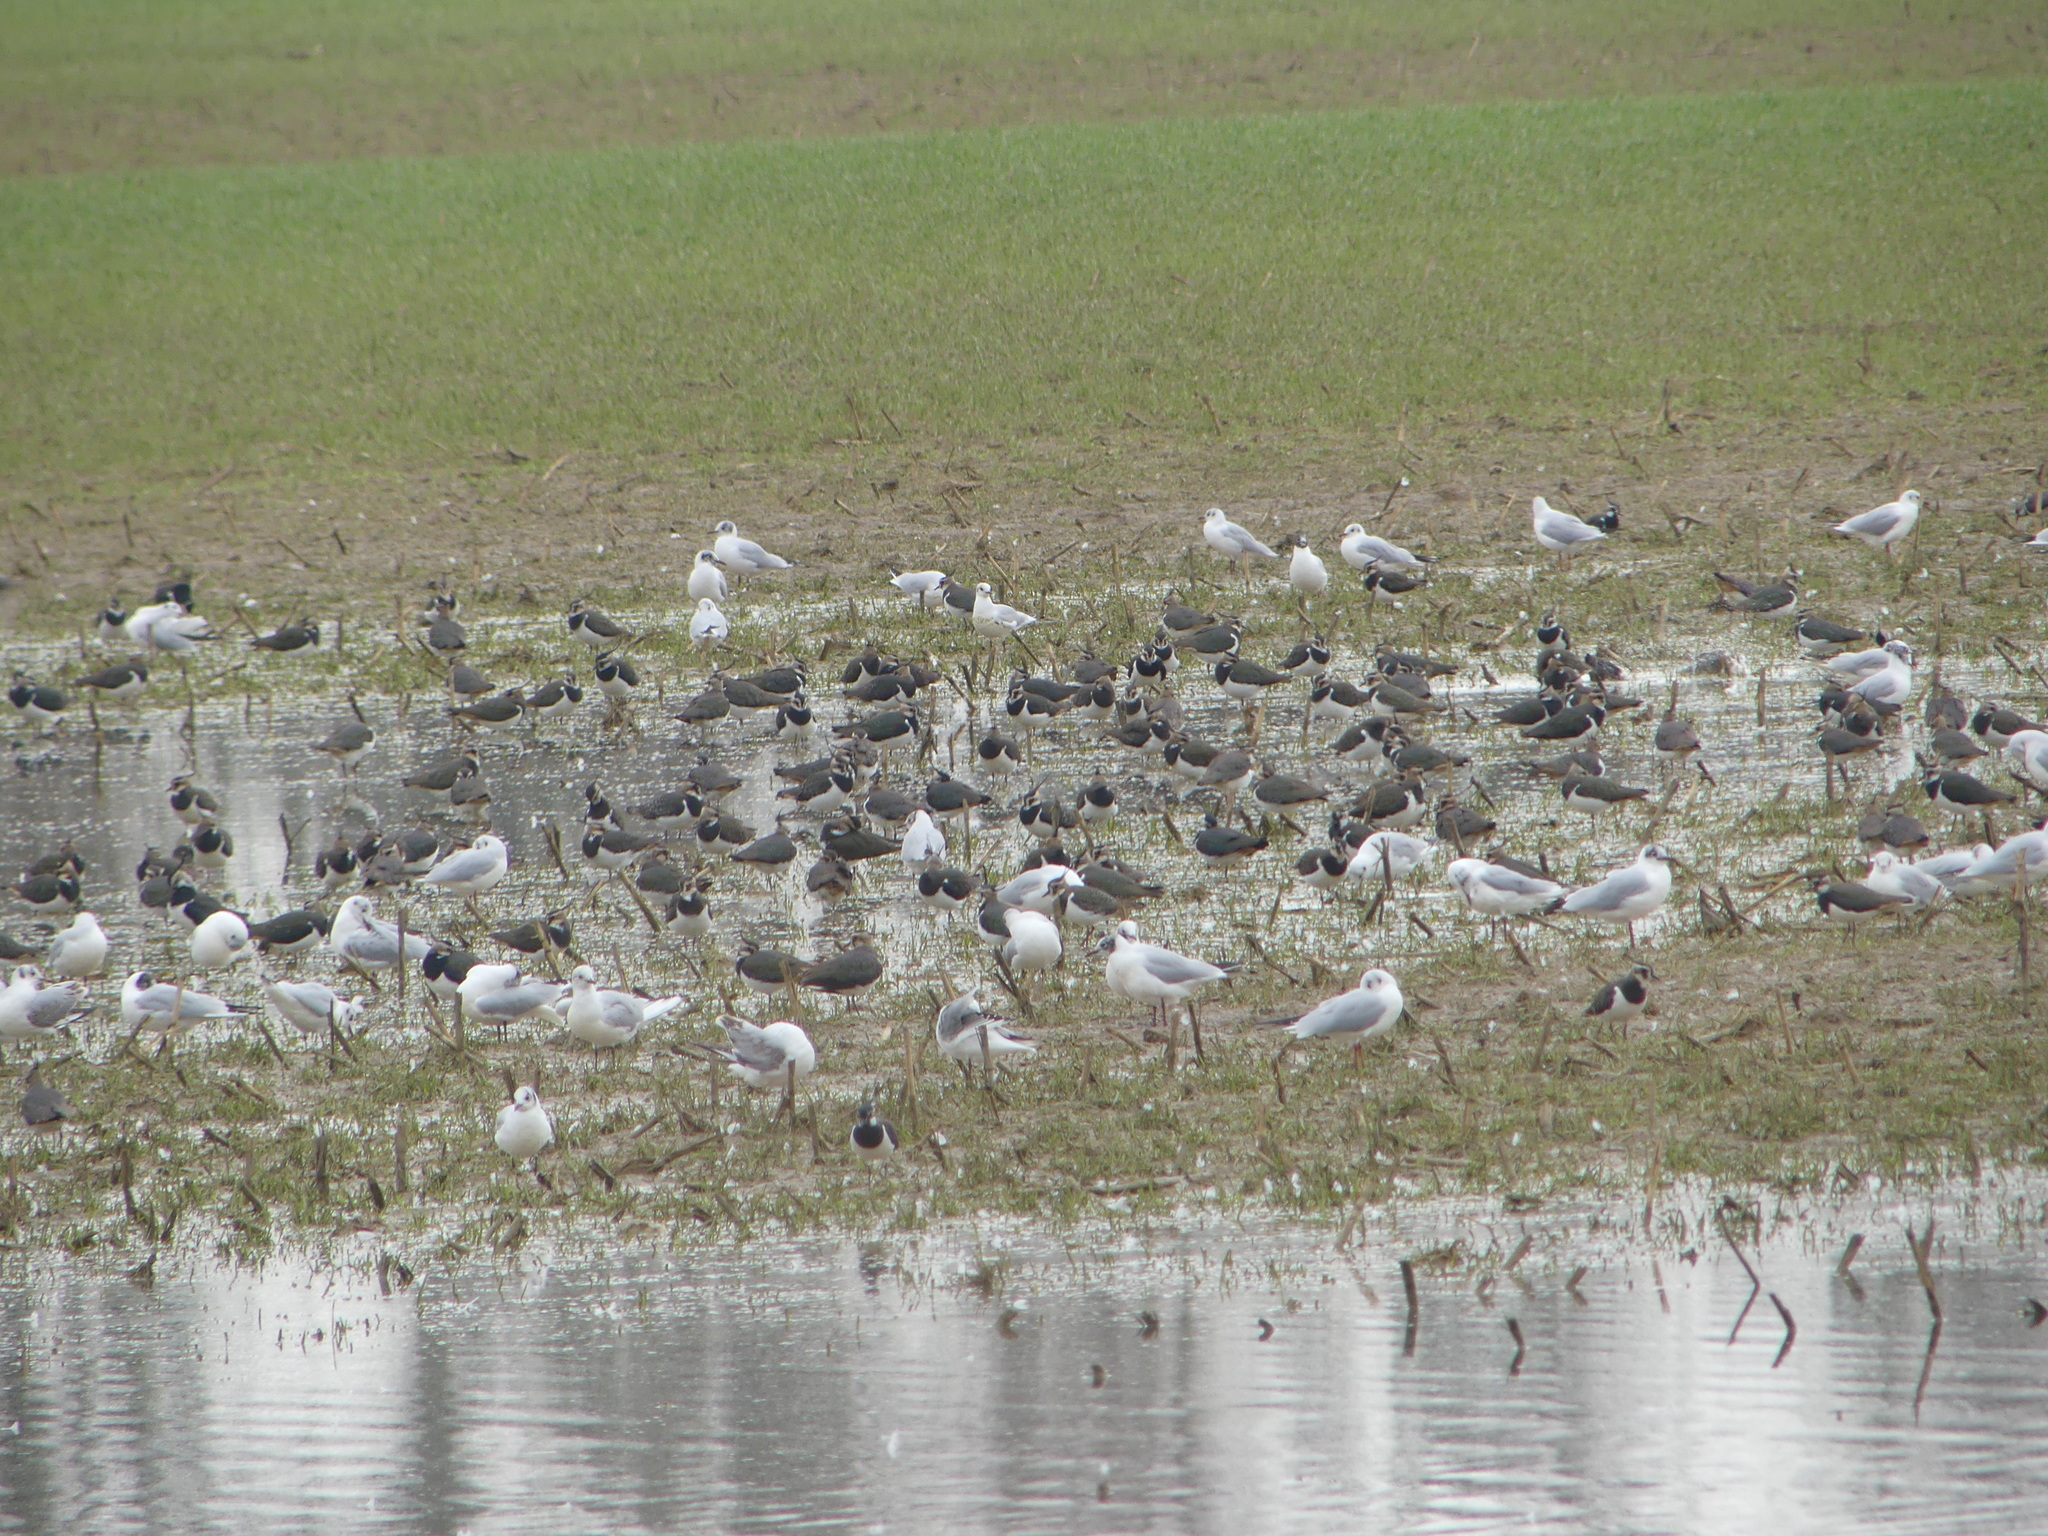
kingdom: Animalia
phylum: Chordata
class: Aves
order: Charadriiformes
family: Charadriidae
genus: Vanellus
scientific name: Vanellus vanellus
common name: Northern lapwing
